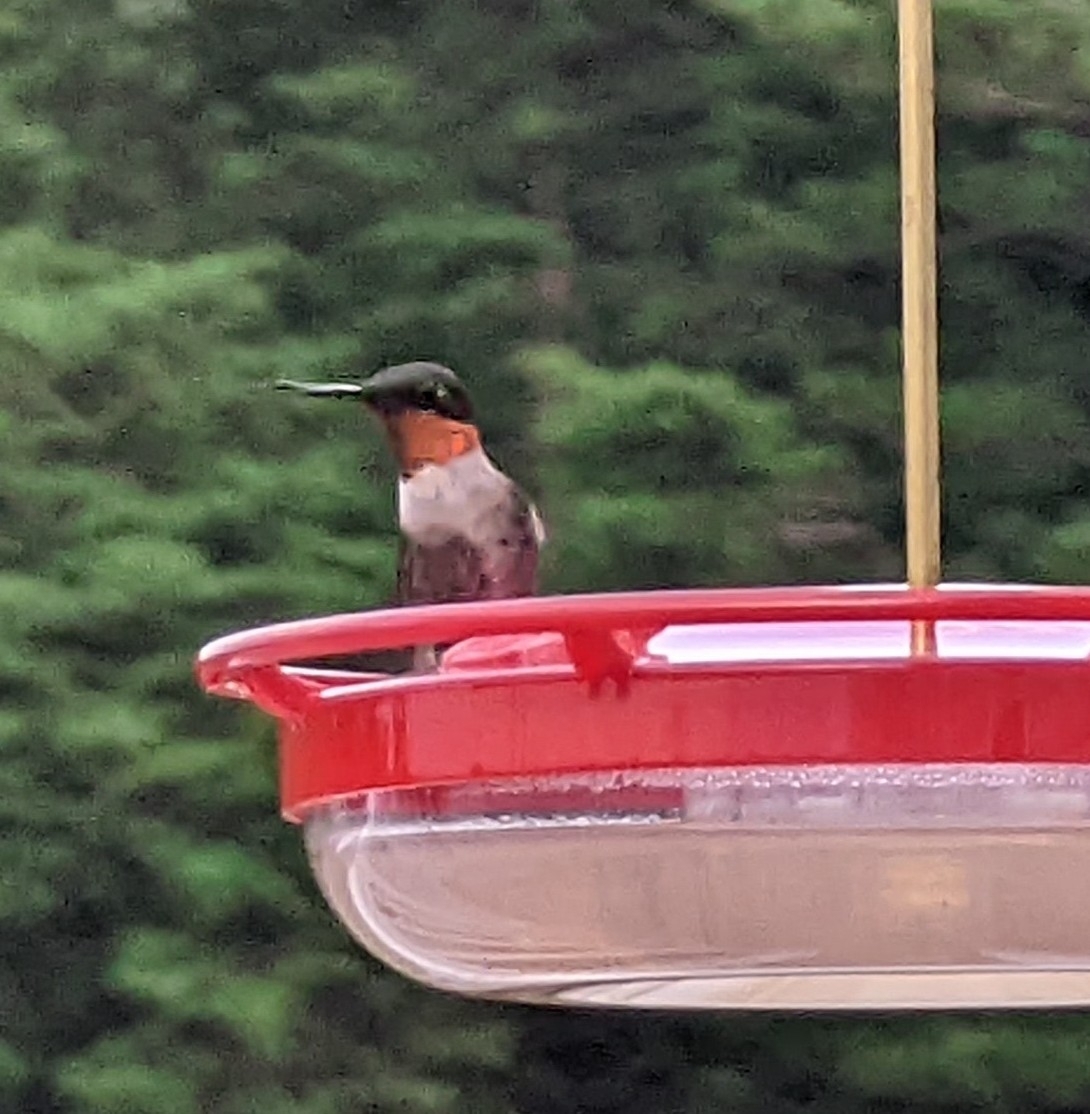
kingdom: Animalia
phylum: Chordata
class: Aves
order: Apodiformes
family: Trochilidae
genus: Archilochus
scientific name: Archilochus colubris
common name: Ruby-throated hummingbird
